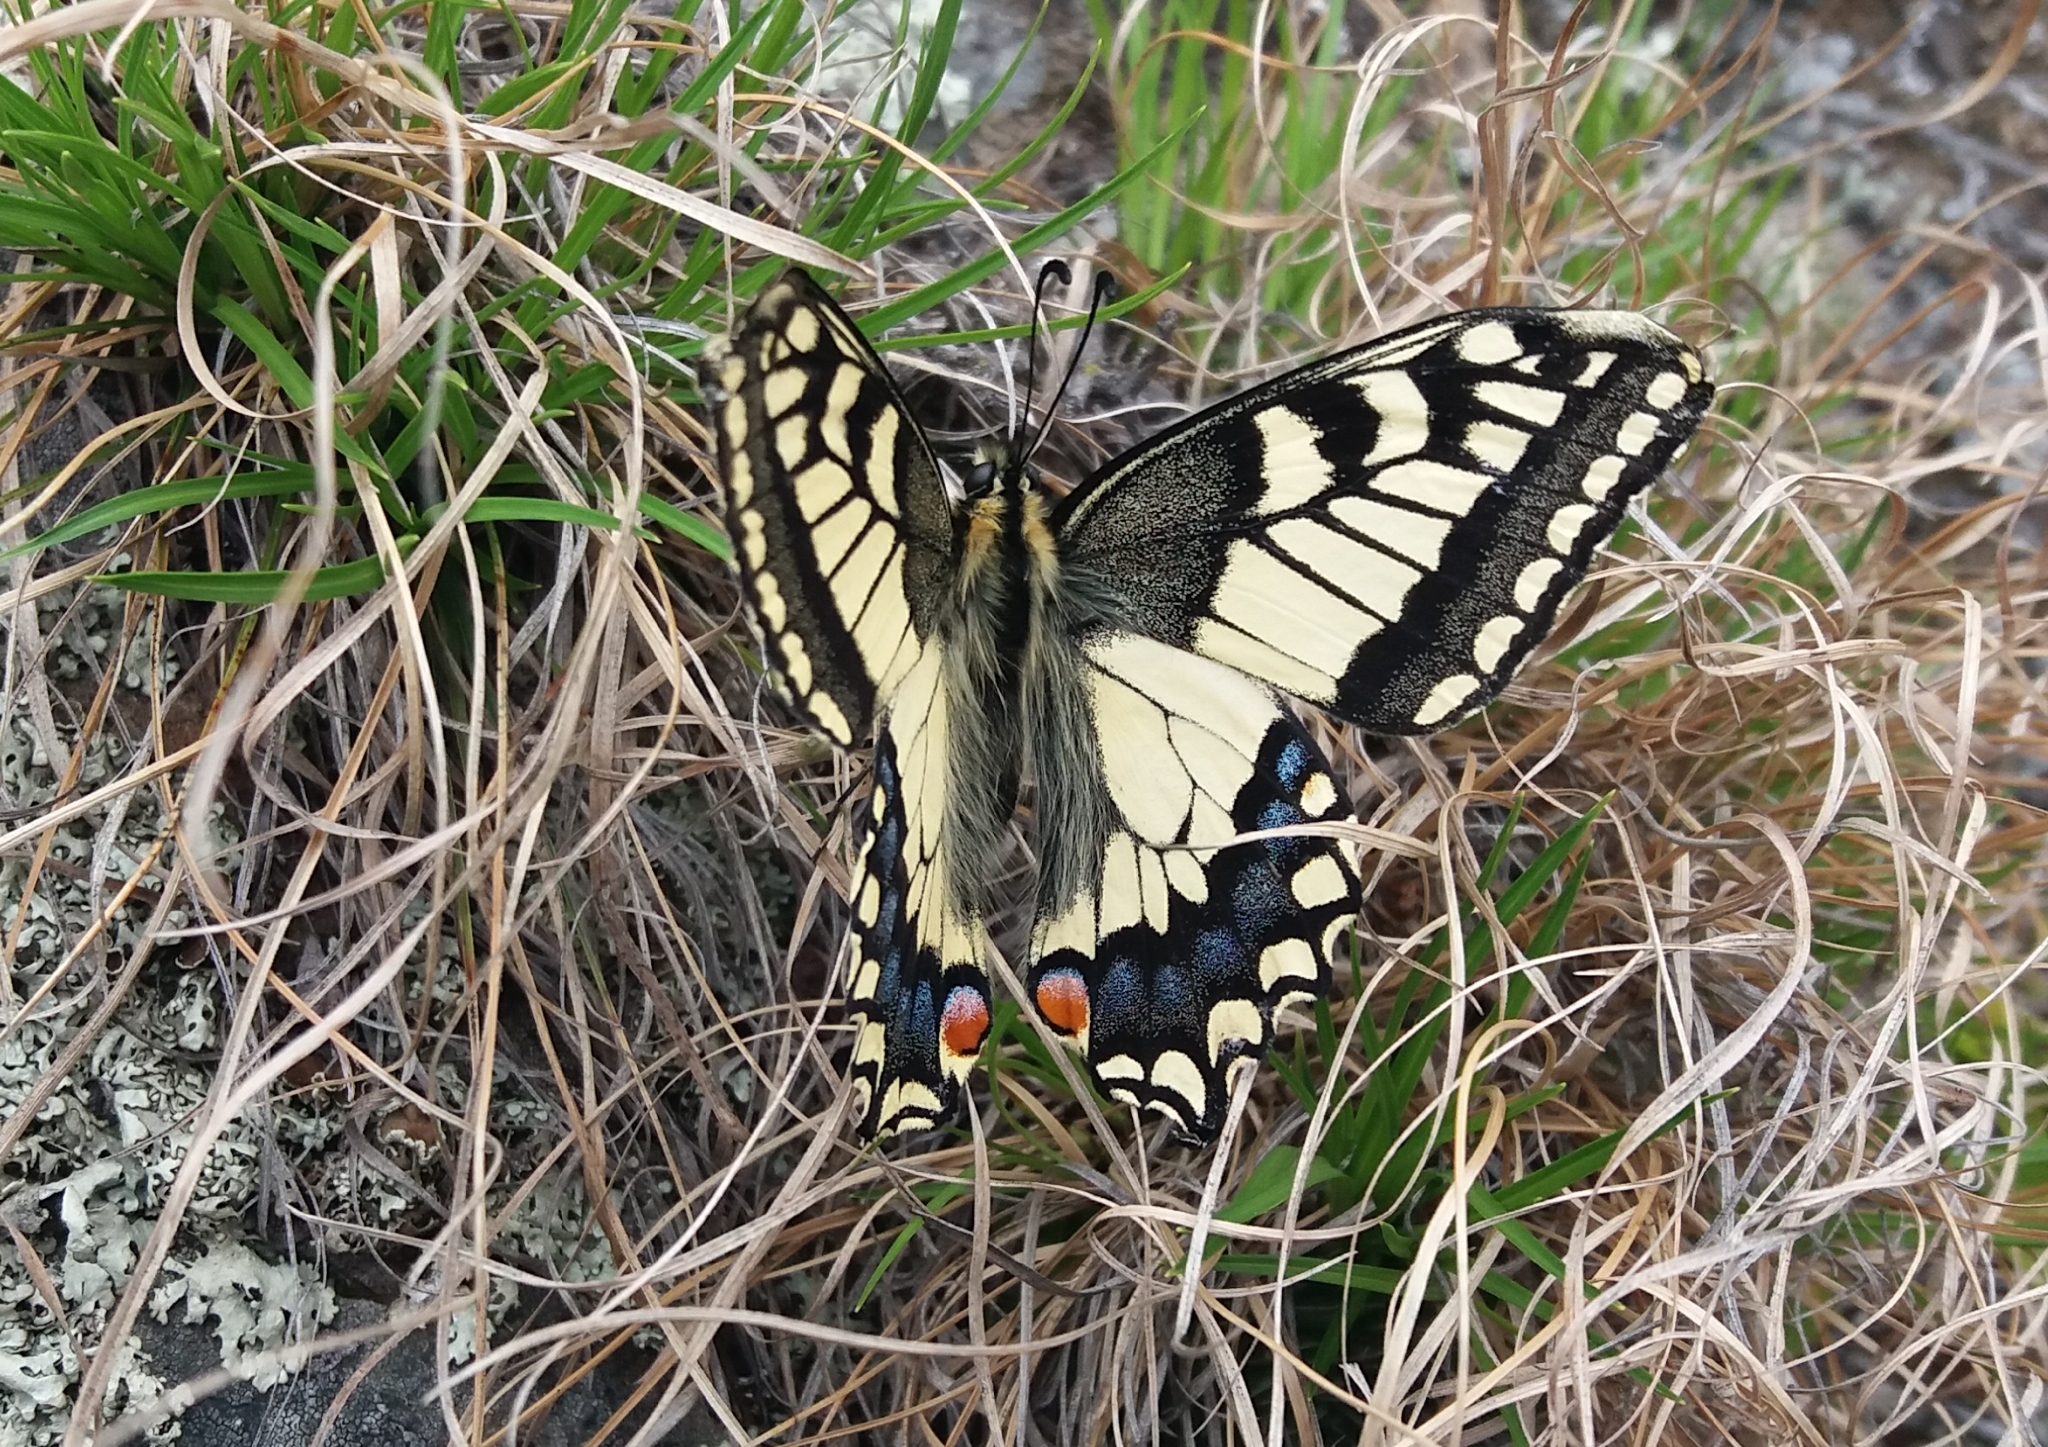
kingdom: Animalia
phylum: Arthropoda
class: Insecta
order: Lepidoptera
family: Papilionidae
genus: Papilio
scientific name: Papilio machaon
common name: Swallowtail
